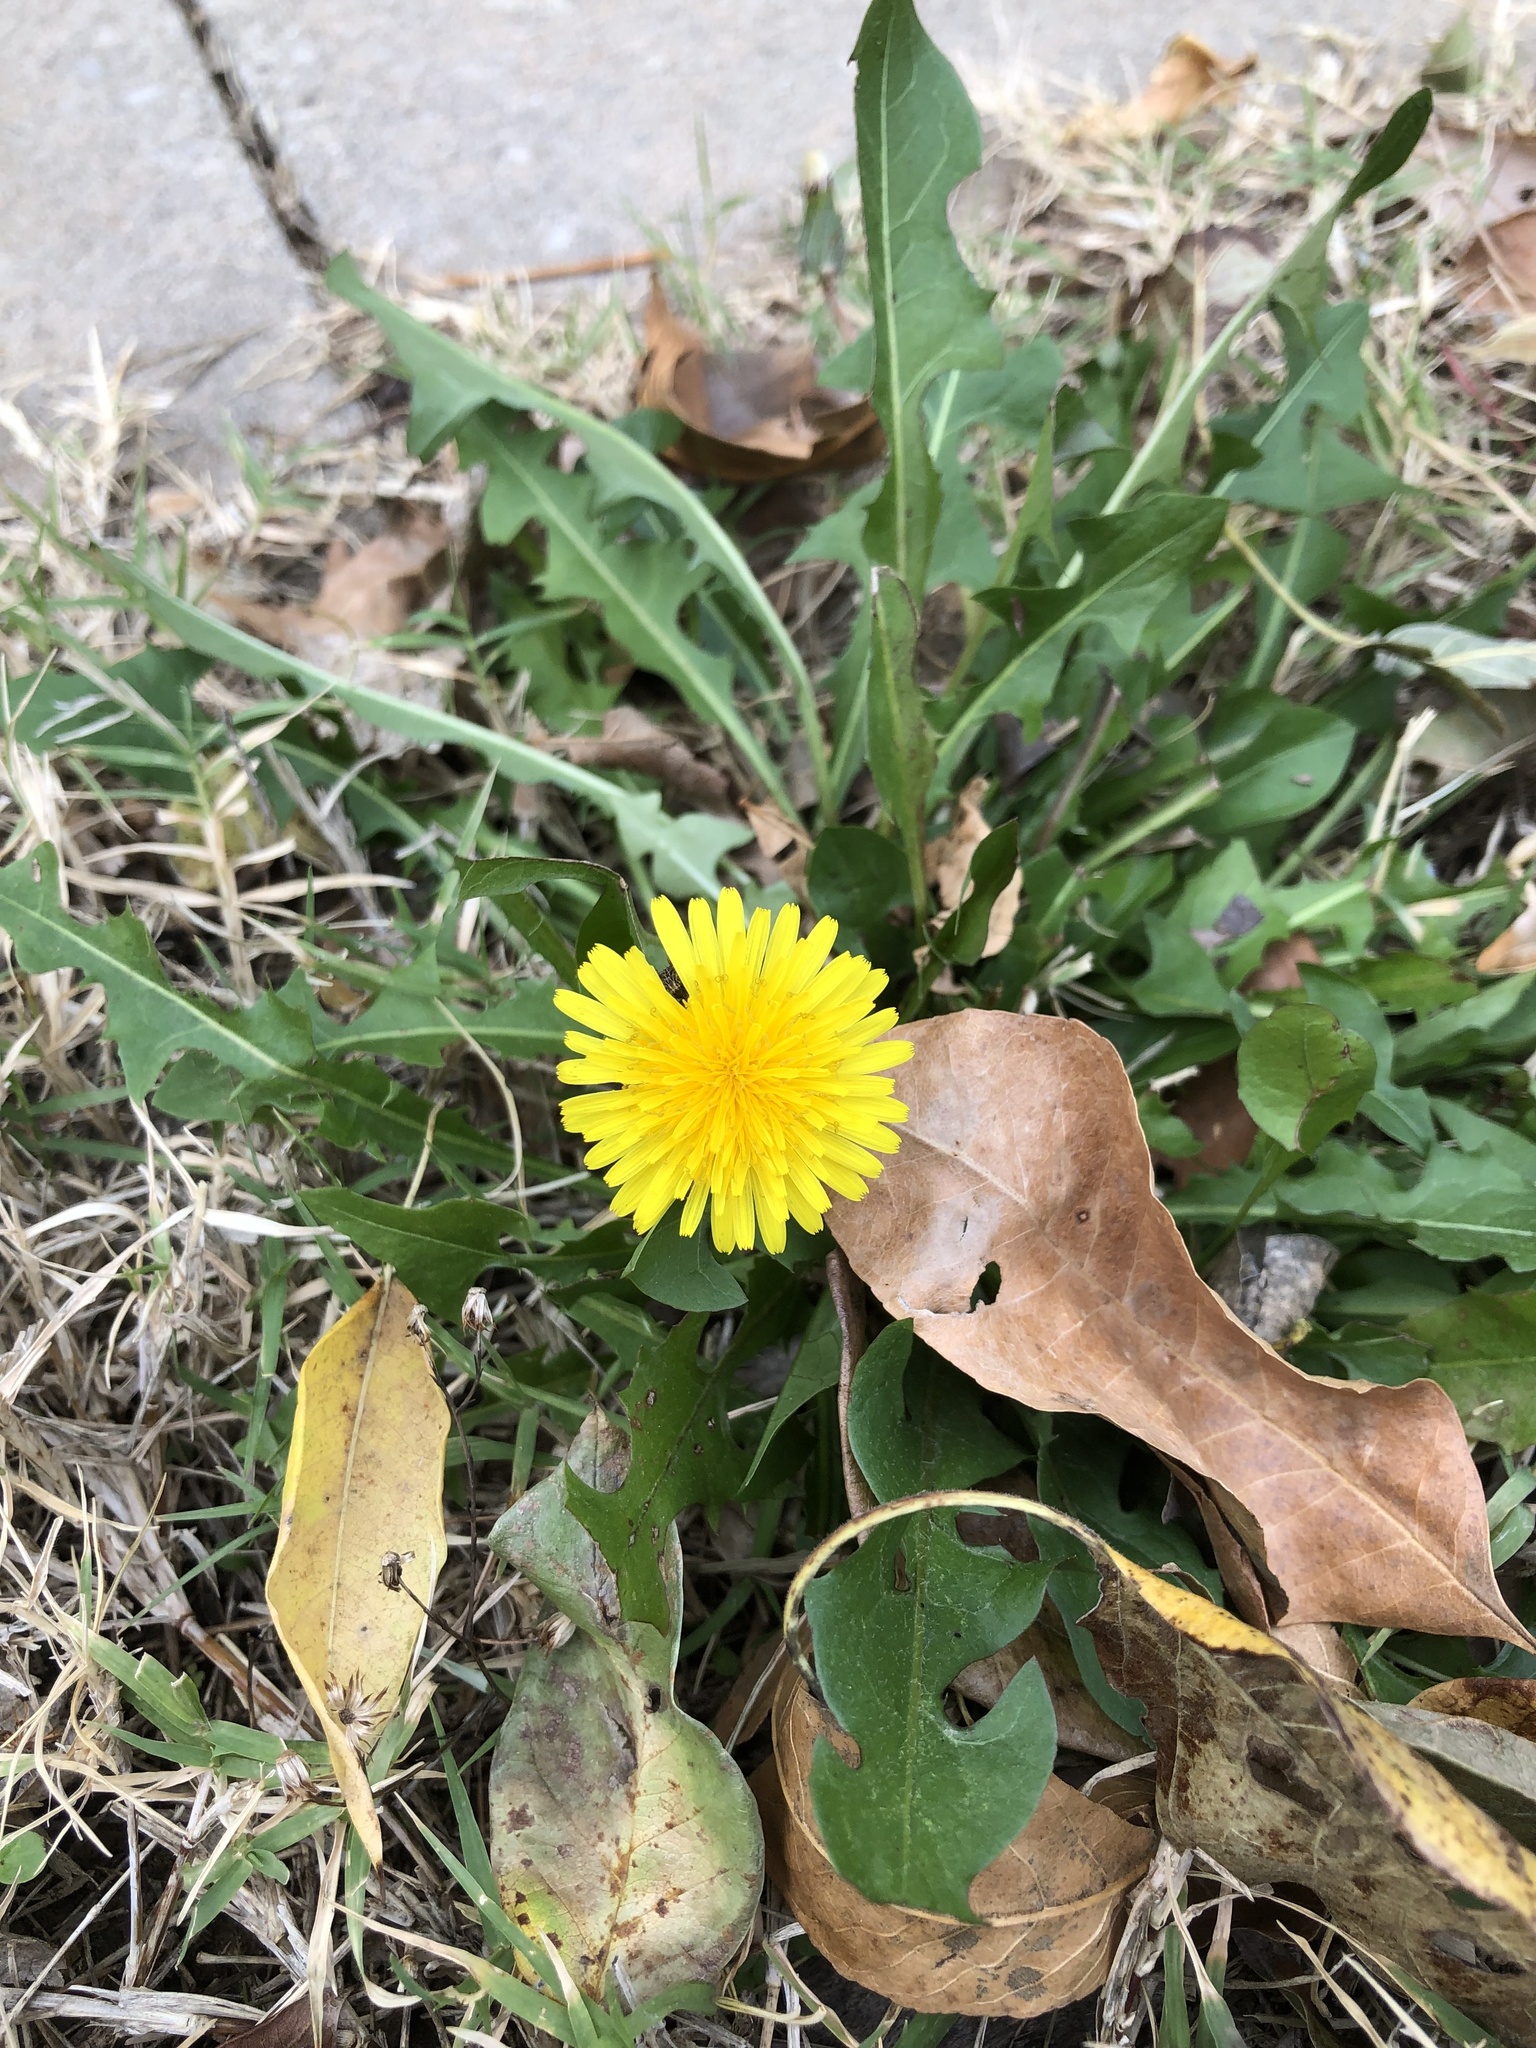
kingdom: Plantae
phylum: Tracheophyta
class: Magnoliopsida
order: Asterales
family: Asteraceae
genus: Taraxacum
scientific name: Taraxacum officinale
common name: Common dandelion
